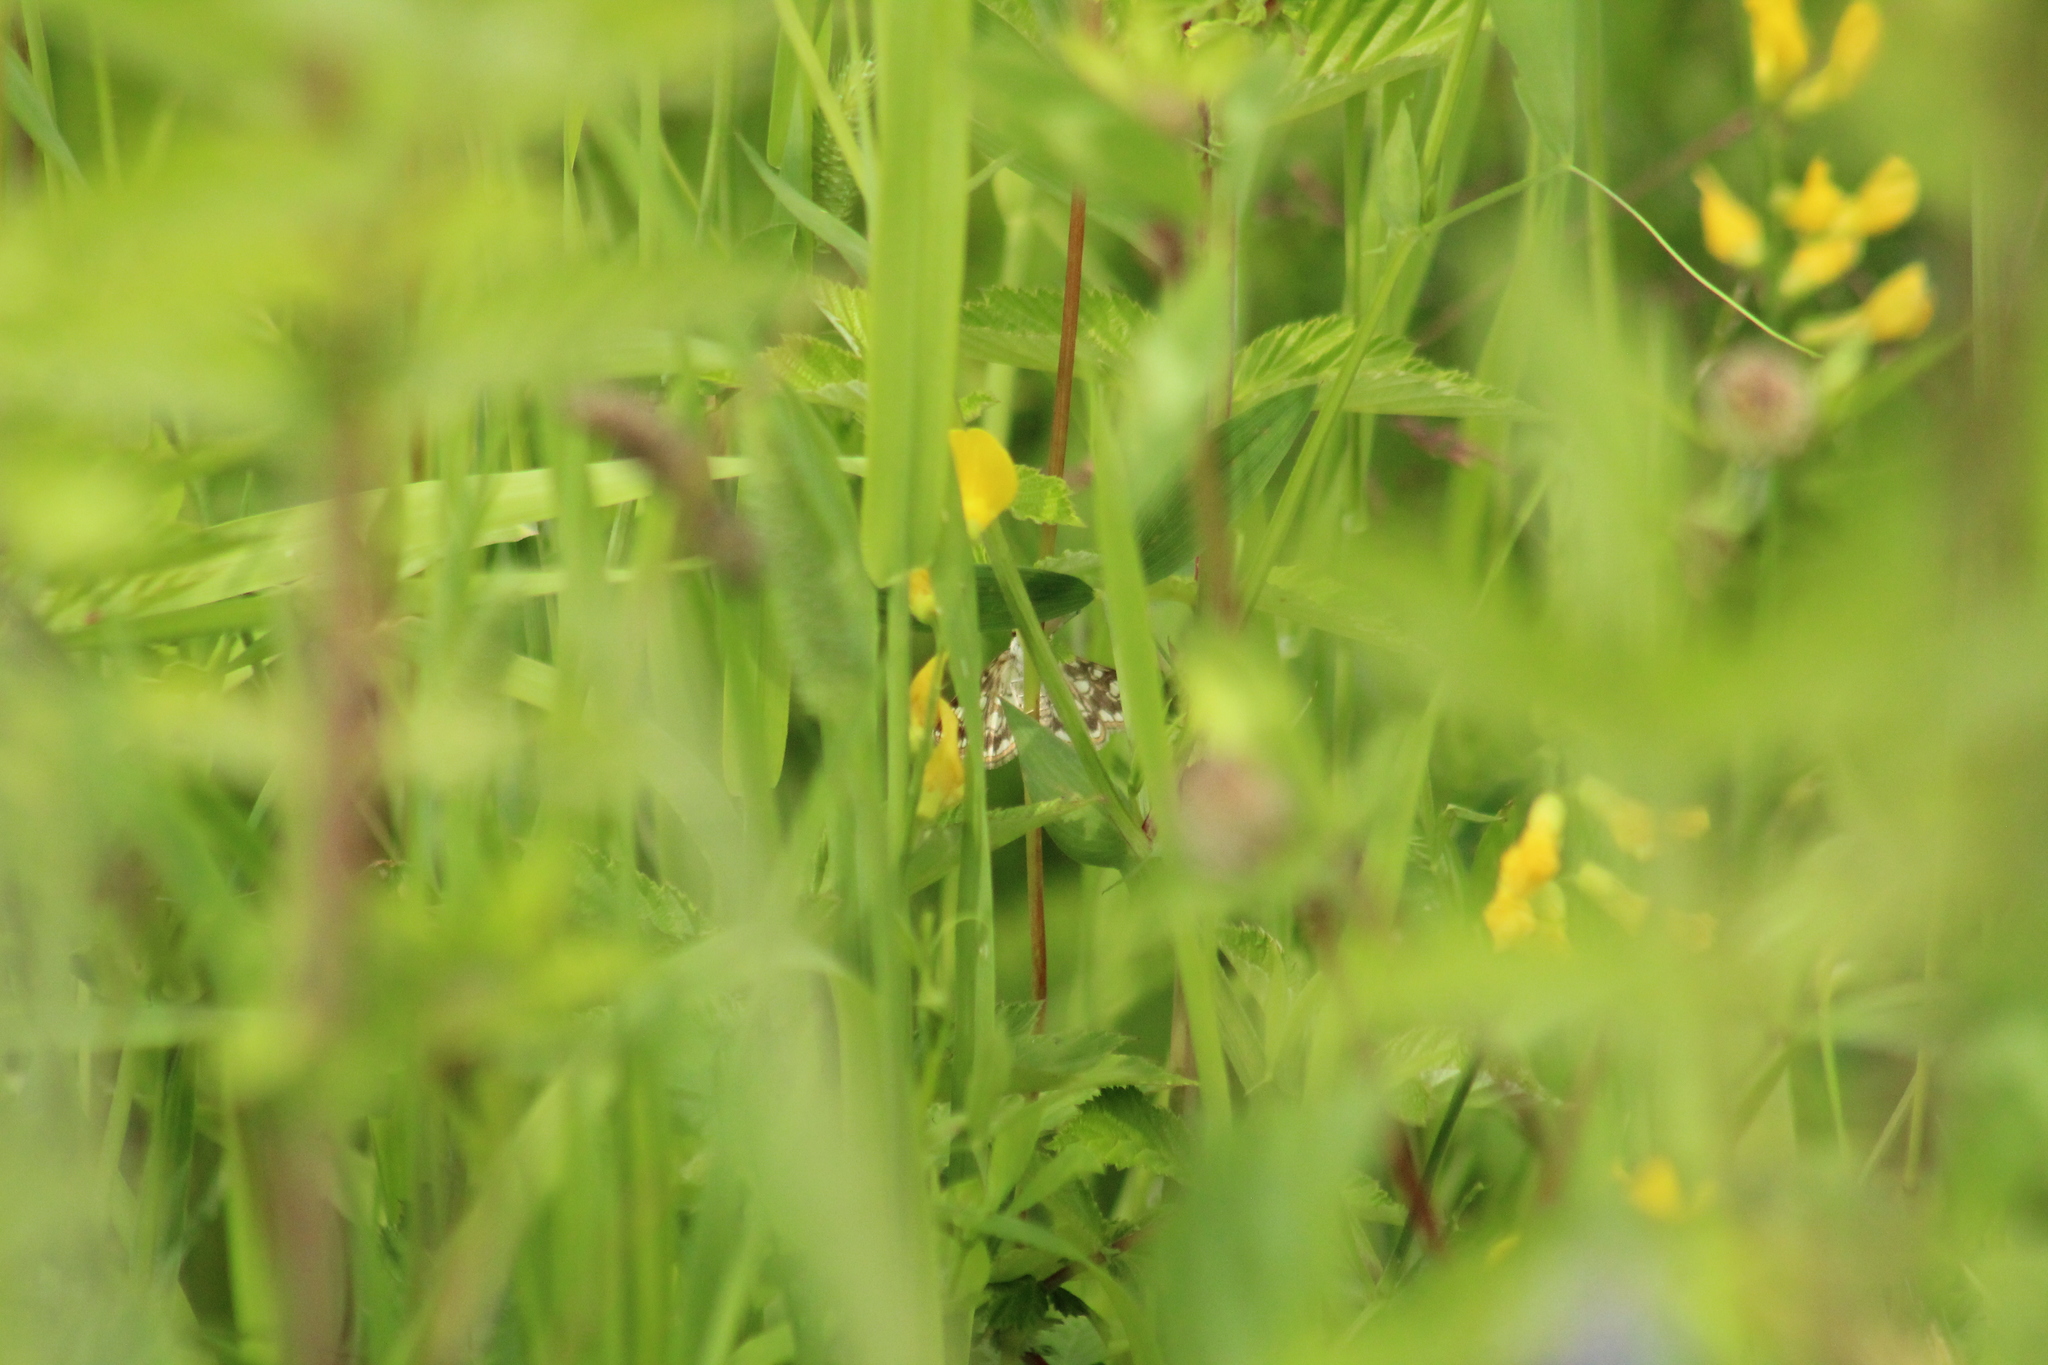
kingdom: Animalia
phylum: Arthropoda
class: Insecta
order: Lepidoptera
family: Crambidae
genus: Elophila
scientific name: Elophila nymphaeata
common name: Brown china-mark
